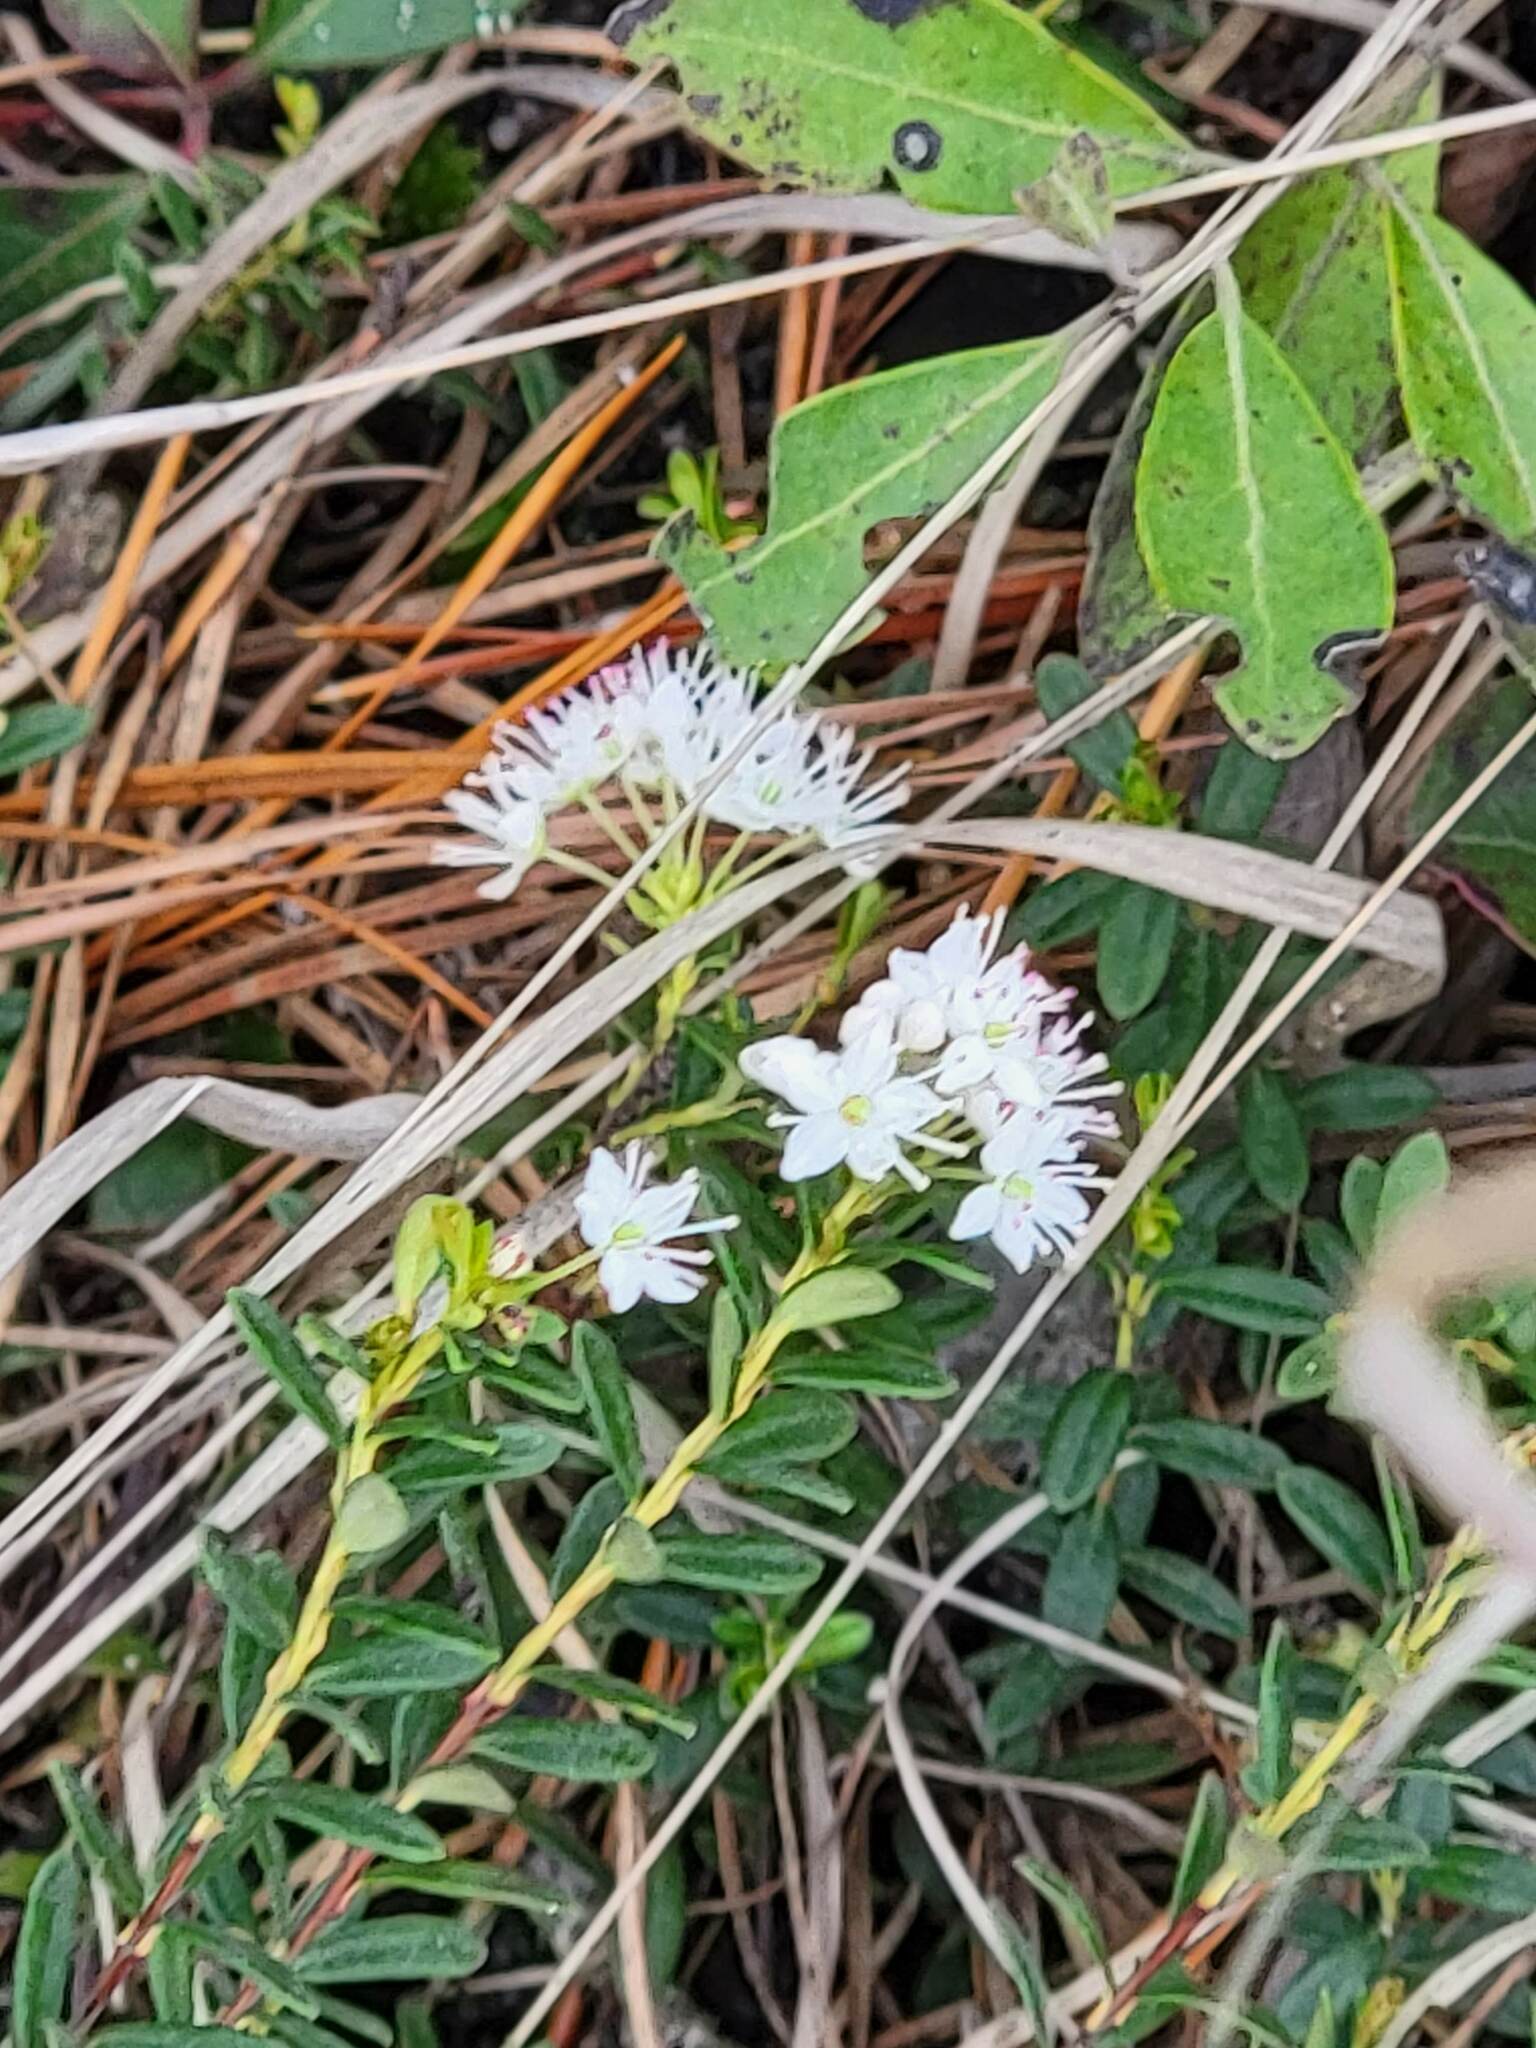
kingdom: Plantae
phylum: Tracheophyta
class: Magnoliopsida
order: Ericales
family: Ericaceae
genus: Kalmia
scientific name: Kalmia buxifolia
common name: Sandmyrtle
